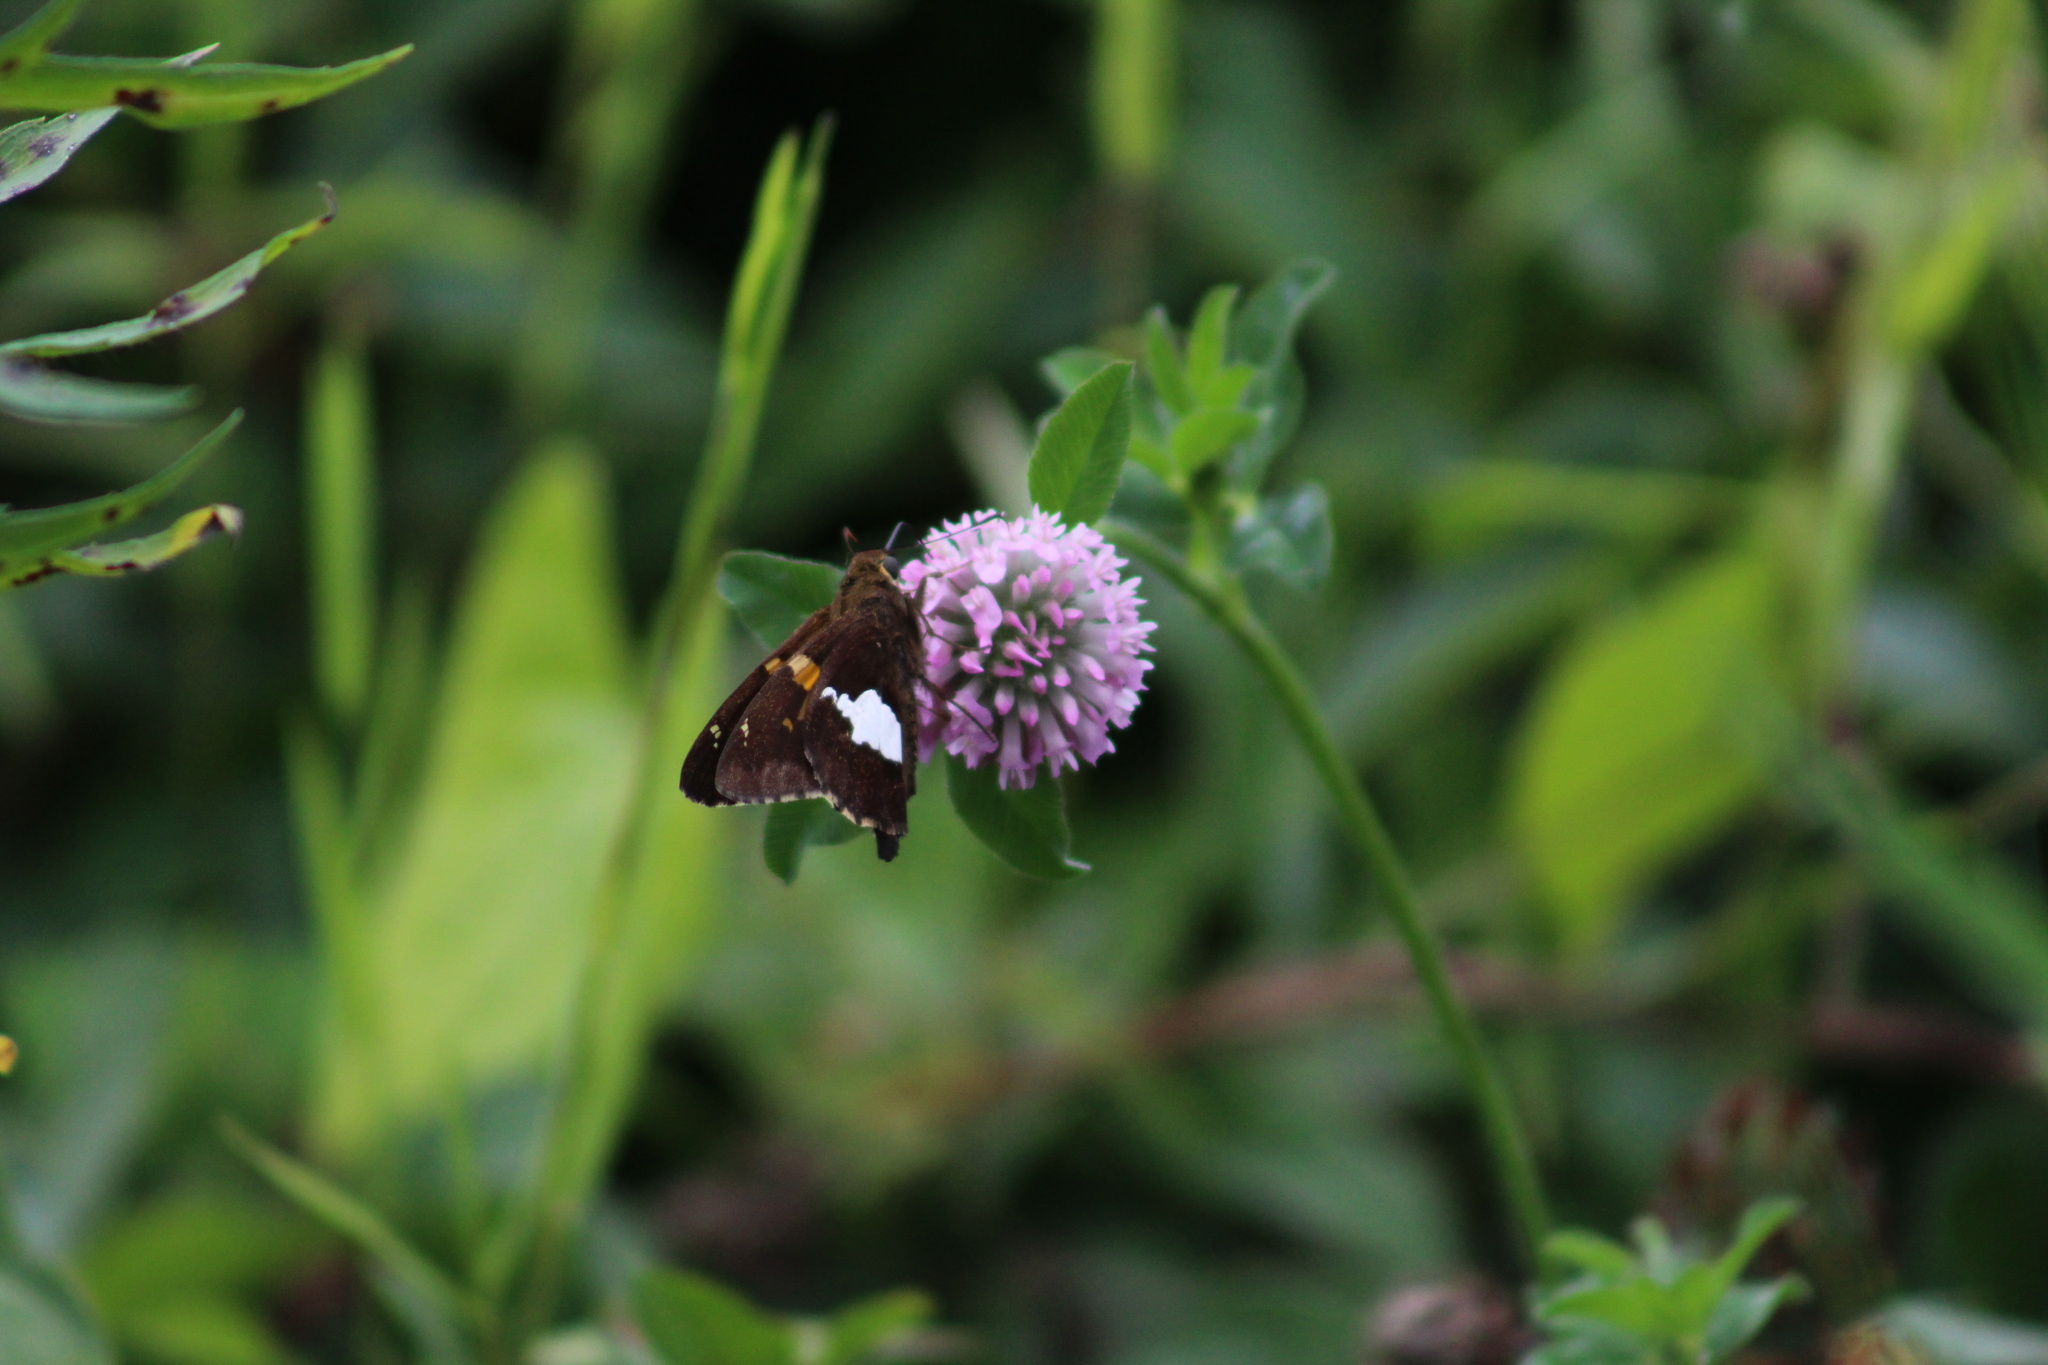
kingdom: Animalia
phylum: Arthropoda
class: Insecta
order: Lepidoptera
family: Hesperiidae
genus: Epargyreus
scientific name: Epargyreus clarus
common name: Silver-spotted skipper
